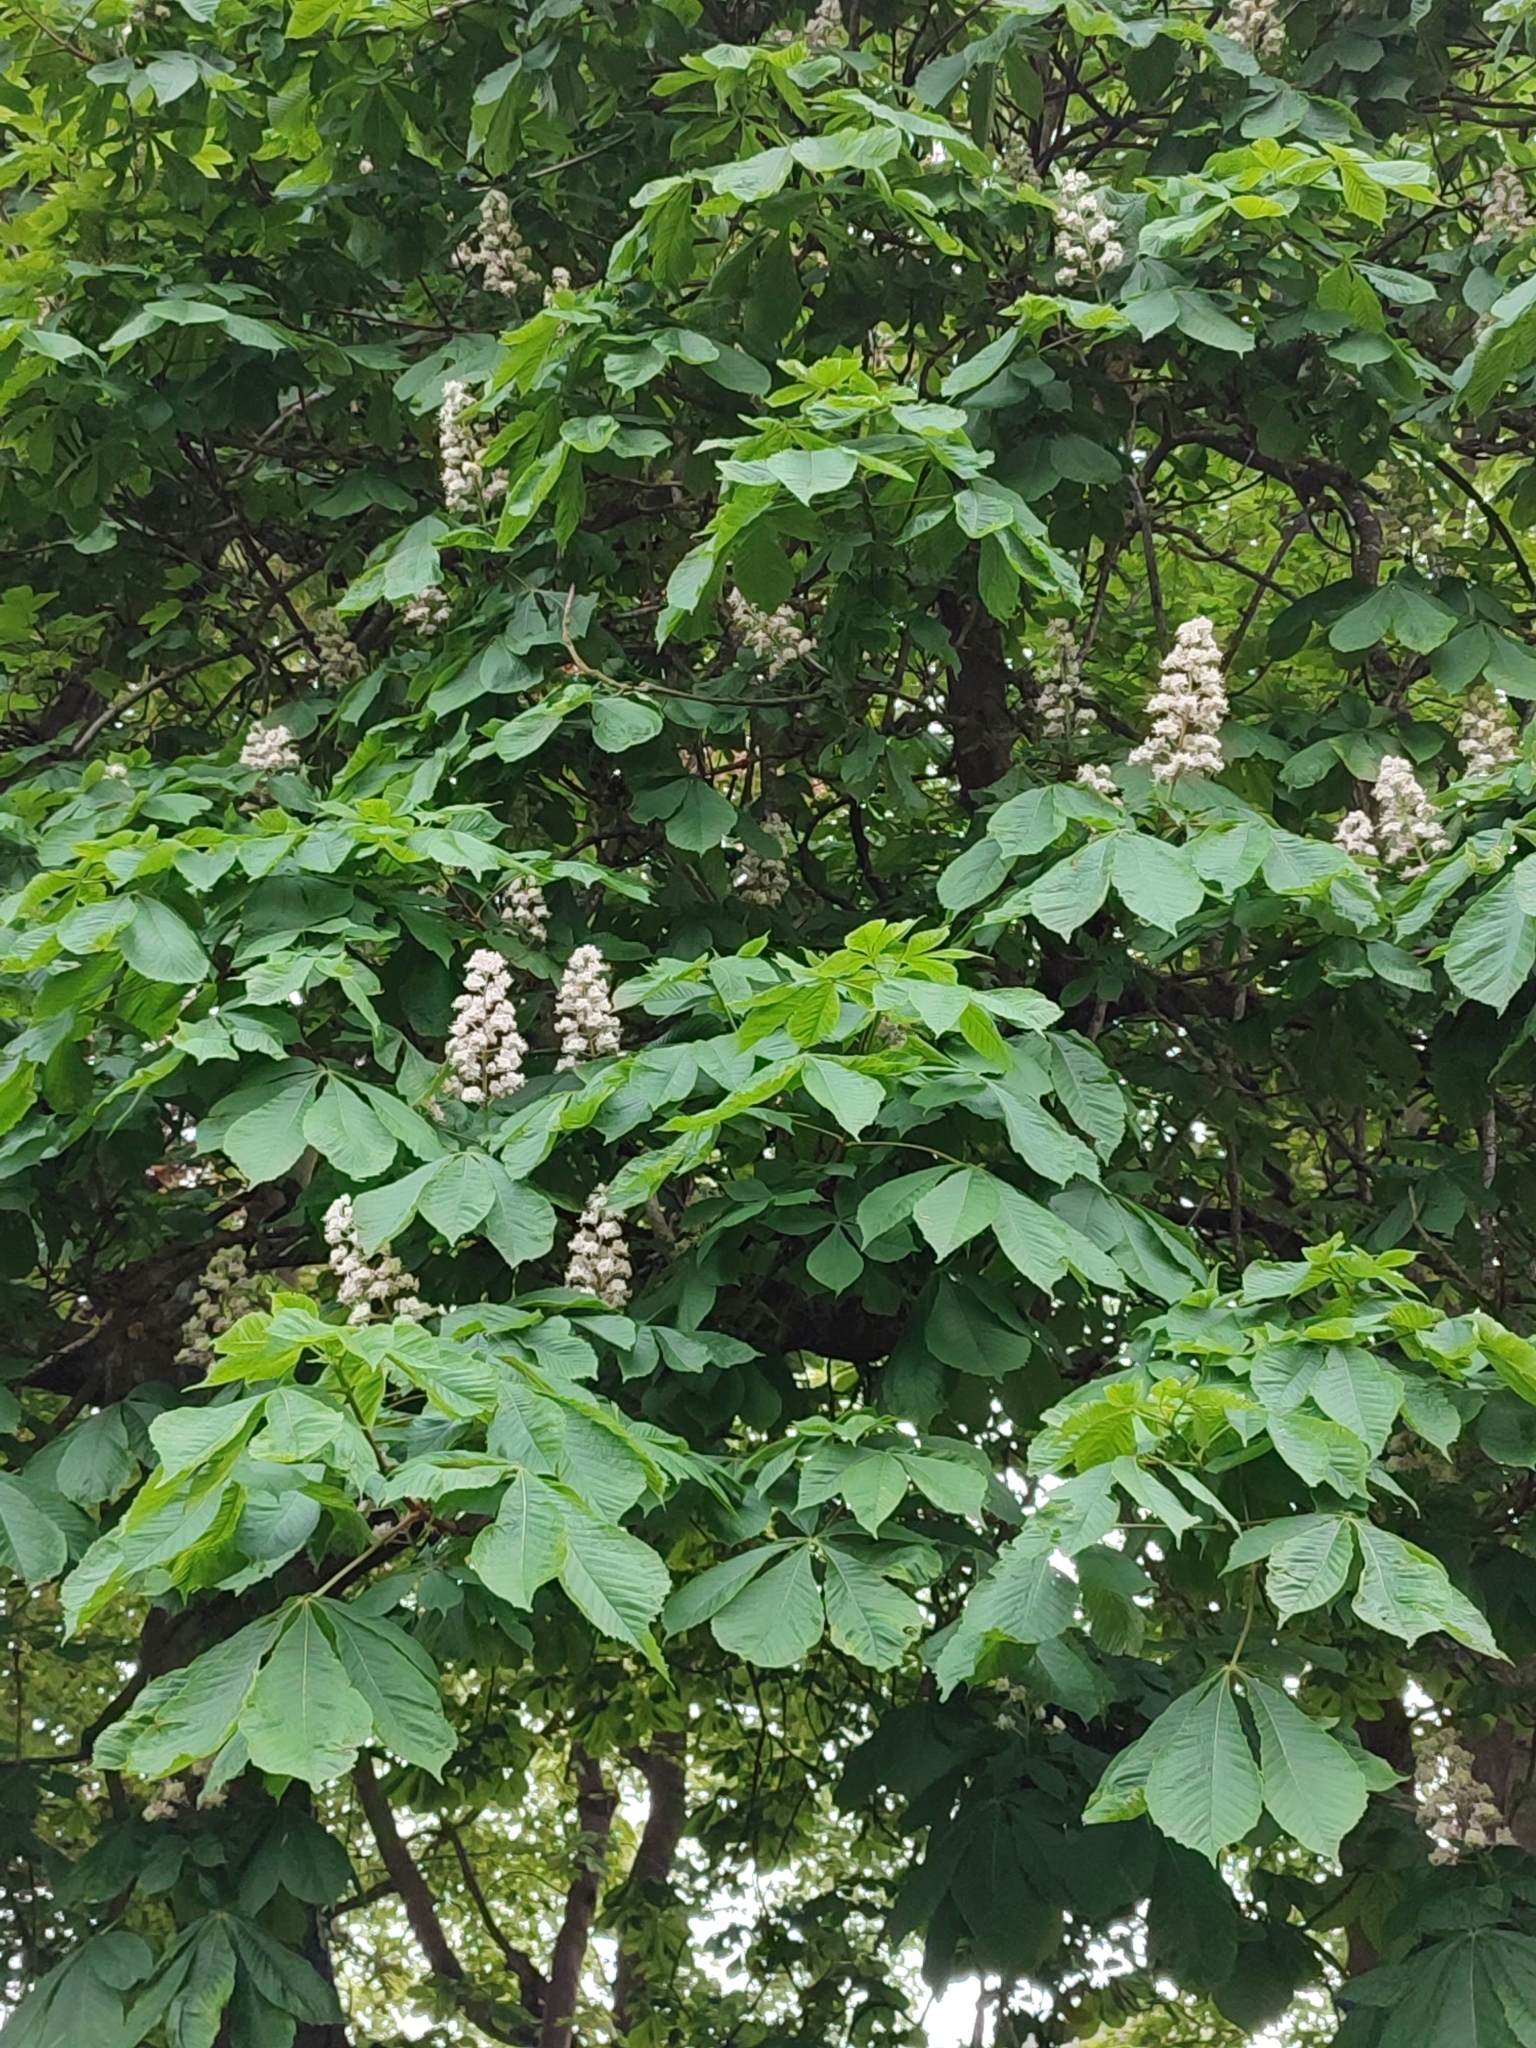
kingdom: Plantae
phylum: Tracheophyta
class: Magnoliopsida
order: Sapindales
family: Sapindaceae
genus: Aesculus
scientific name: Aesculus hippocastanum
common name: Horse-chestnut
